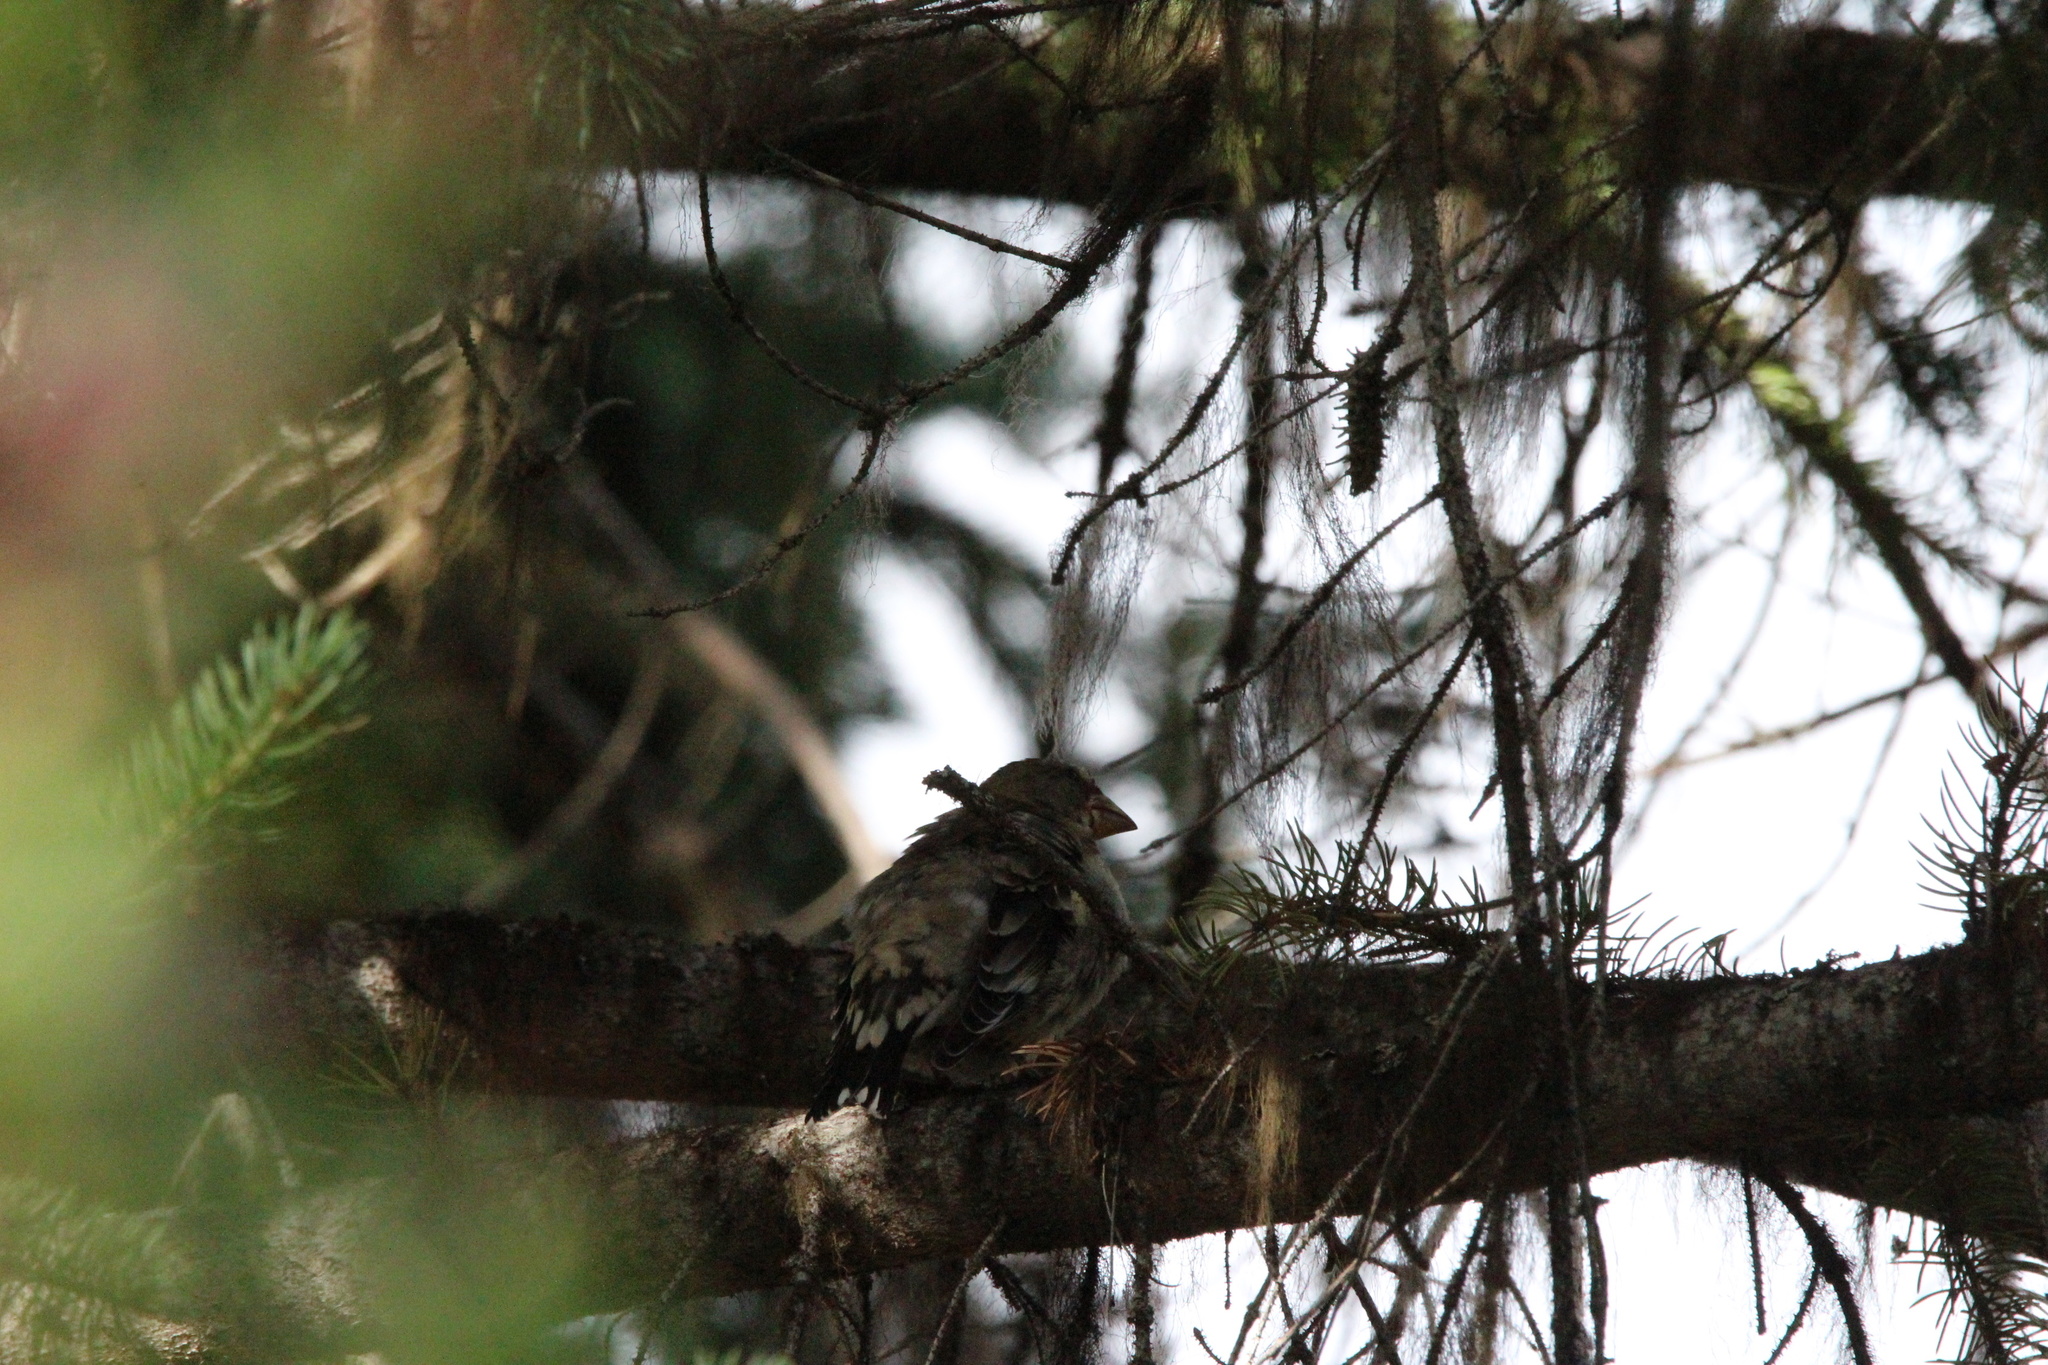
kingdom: Animalia
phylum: Chordata
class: Aves
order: Passeriformes
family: Fringillidae
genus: Hesperiphona
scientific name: Hesperiphona vespertina
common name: Evening grosbeak
